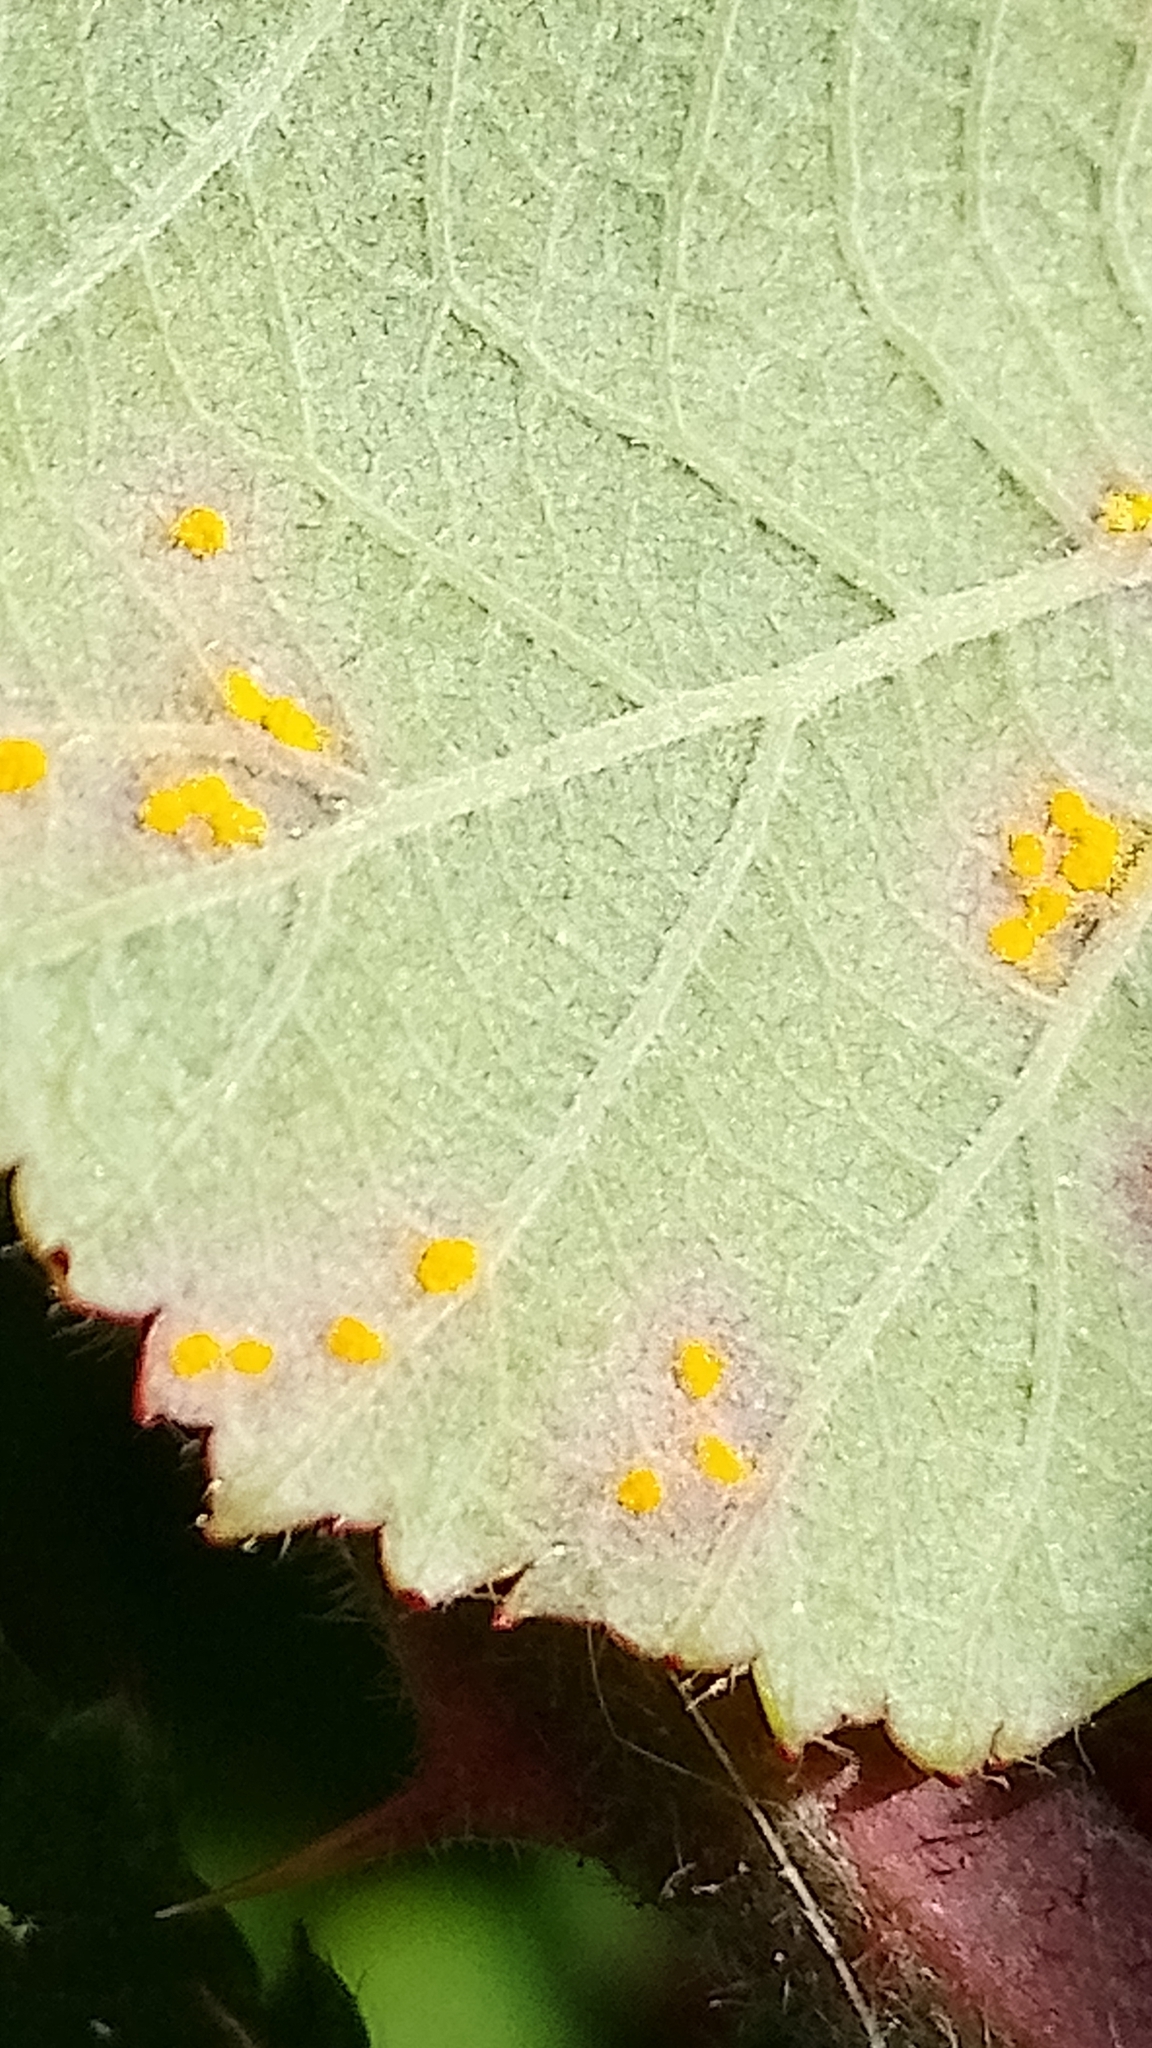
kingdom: Fungi
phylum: Basidiomycota
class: Pucciniomycetes
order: Pucciniales
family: Phragmidiaceae
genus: Phragmidium
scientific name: Phragmidium violaceum
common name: Violet bramble rust
